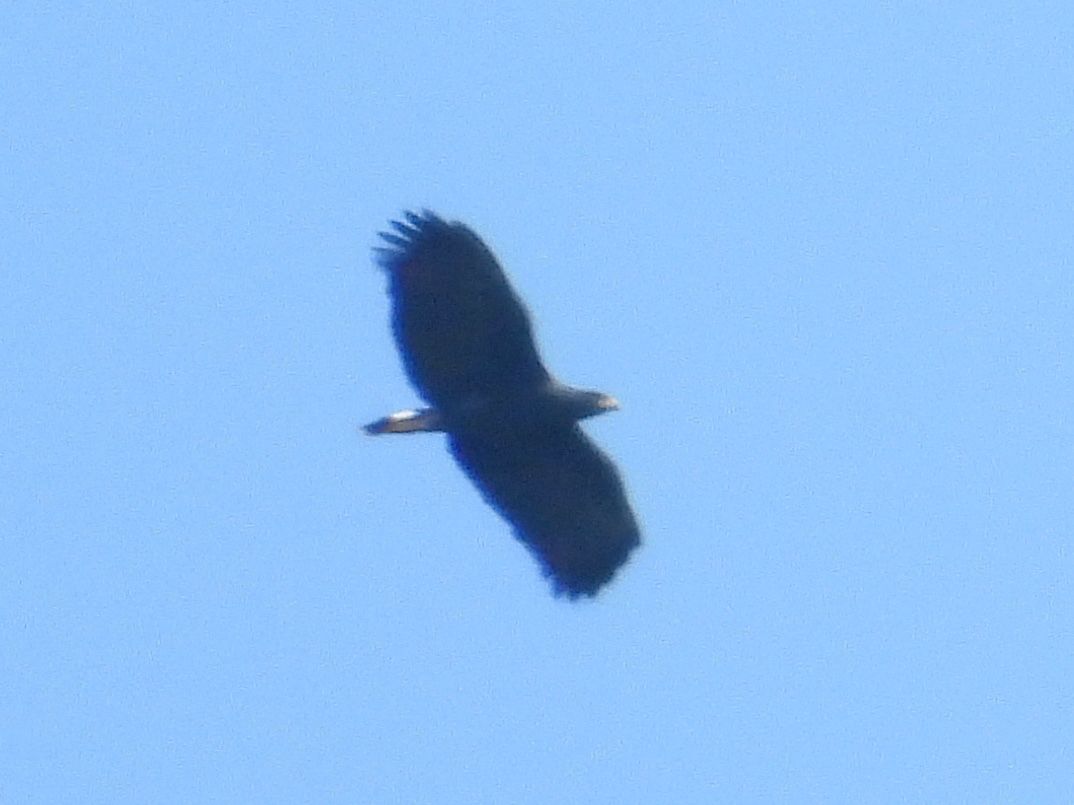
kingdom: Animalia
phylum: Chordata
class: Aves
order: Accipitriformes
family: Accipitridae
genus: Buteogallus
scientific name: Buteogallus urubitinga
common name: Great black hawk
